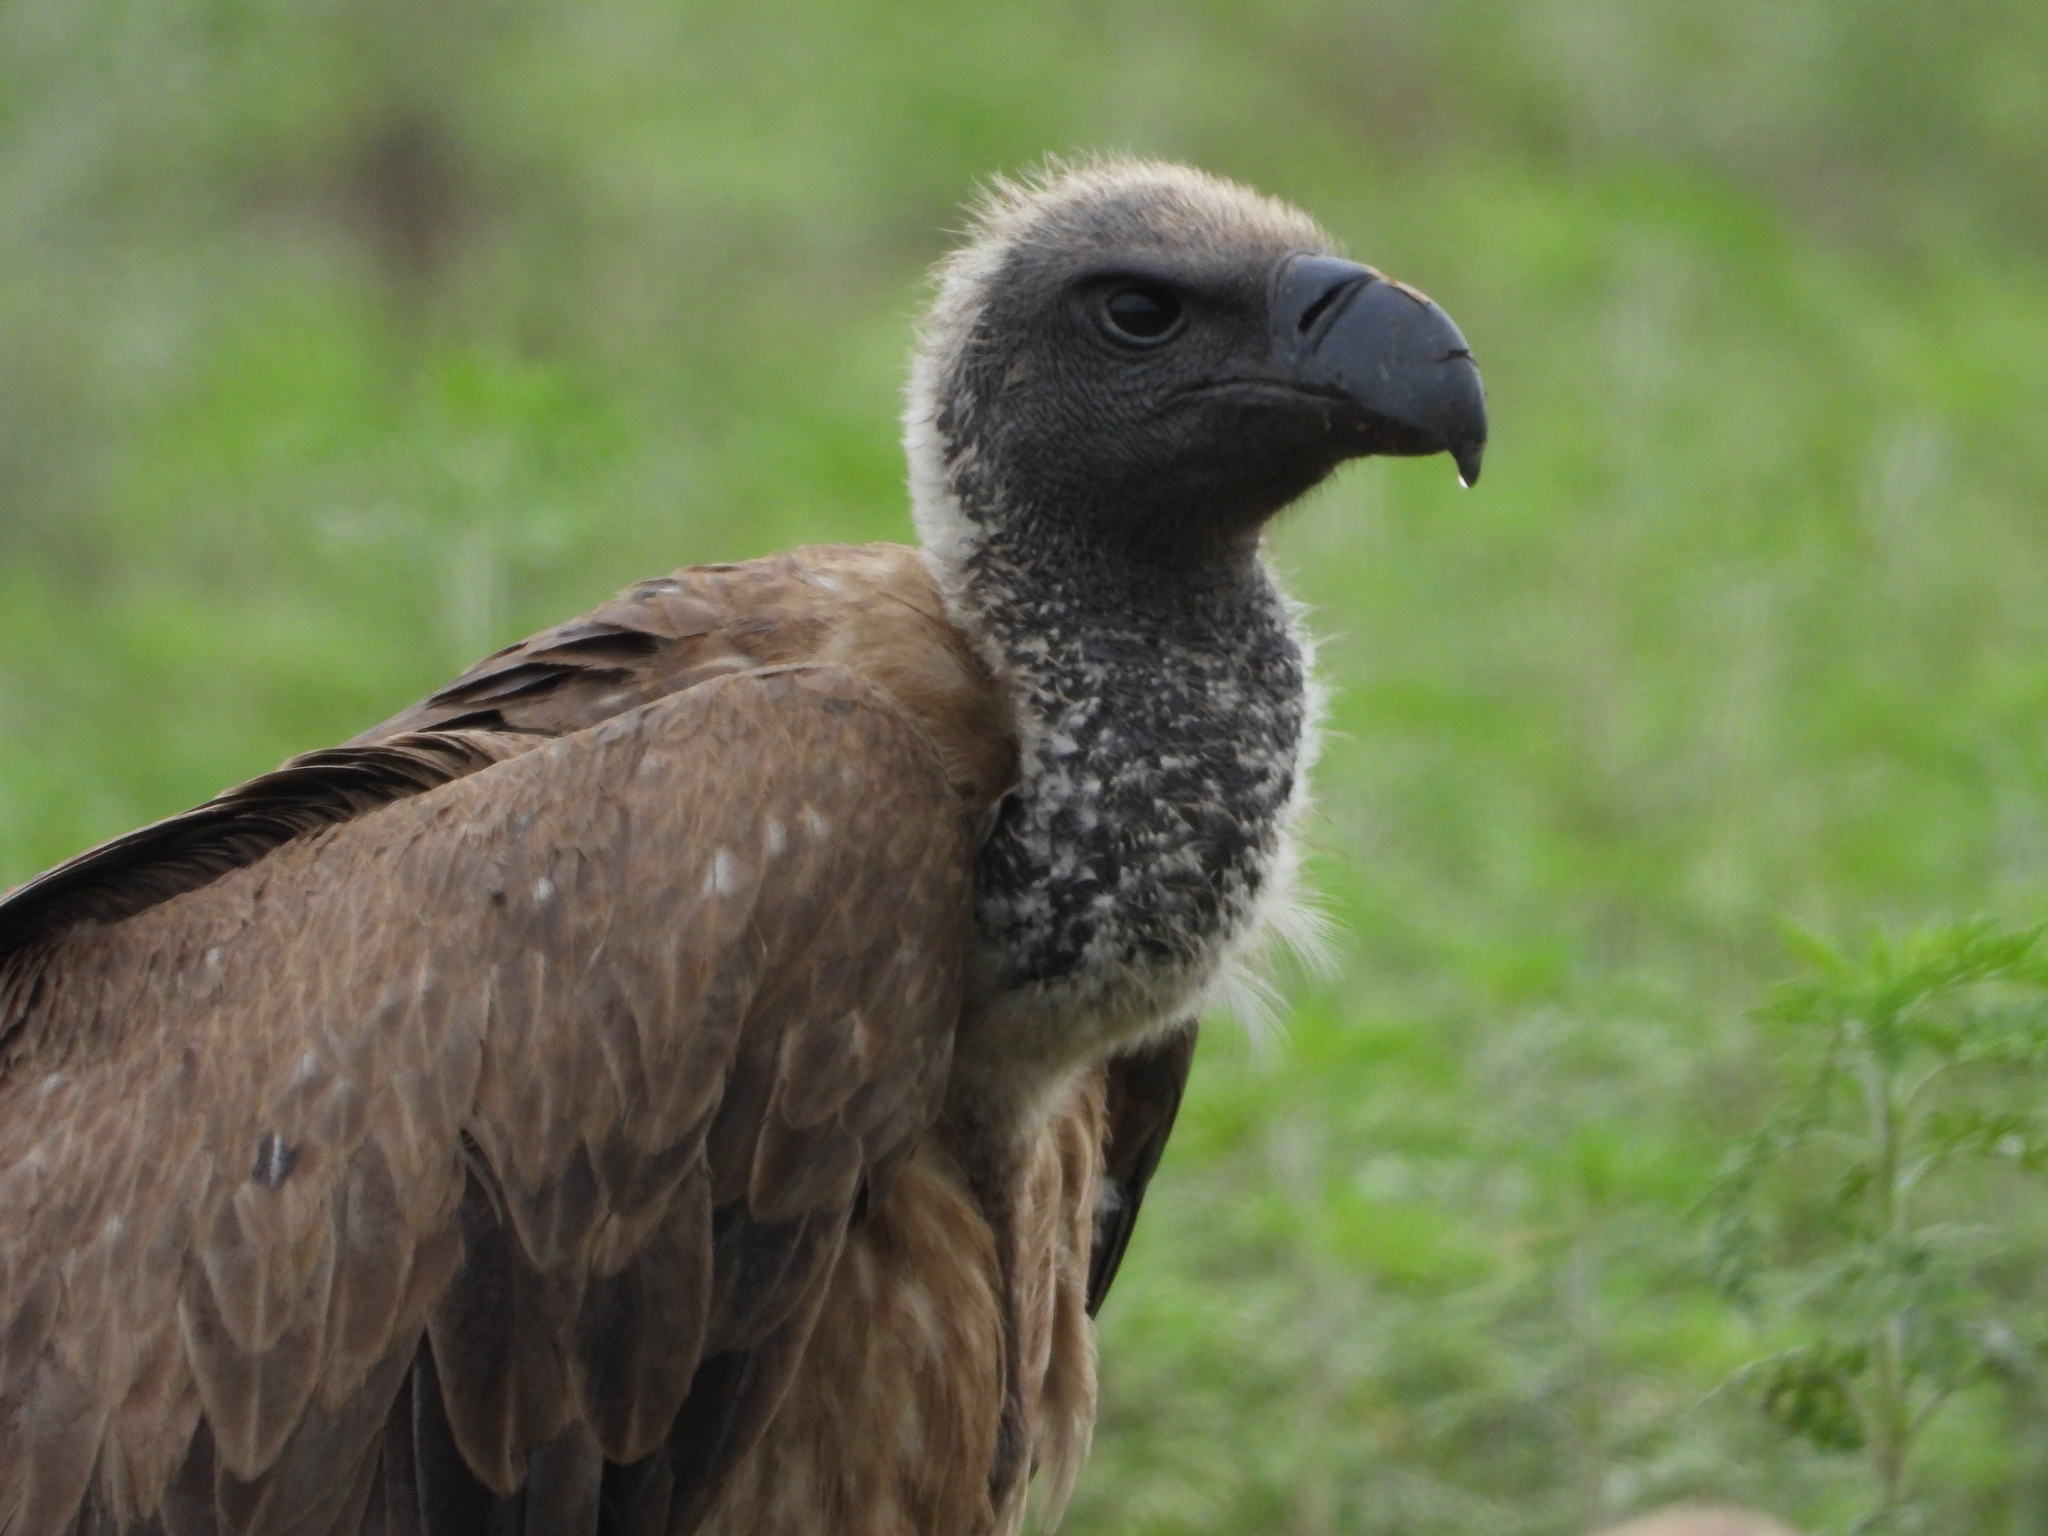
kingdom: Animalia
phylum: Chordata
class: Aves
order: Accipitriformes
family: Accipitridae
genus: Gyps
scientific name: Gyps africanus
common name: White-backed vulture
